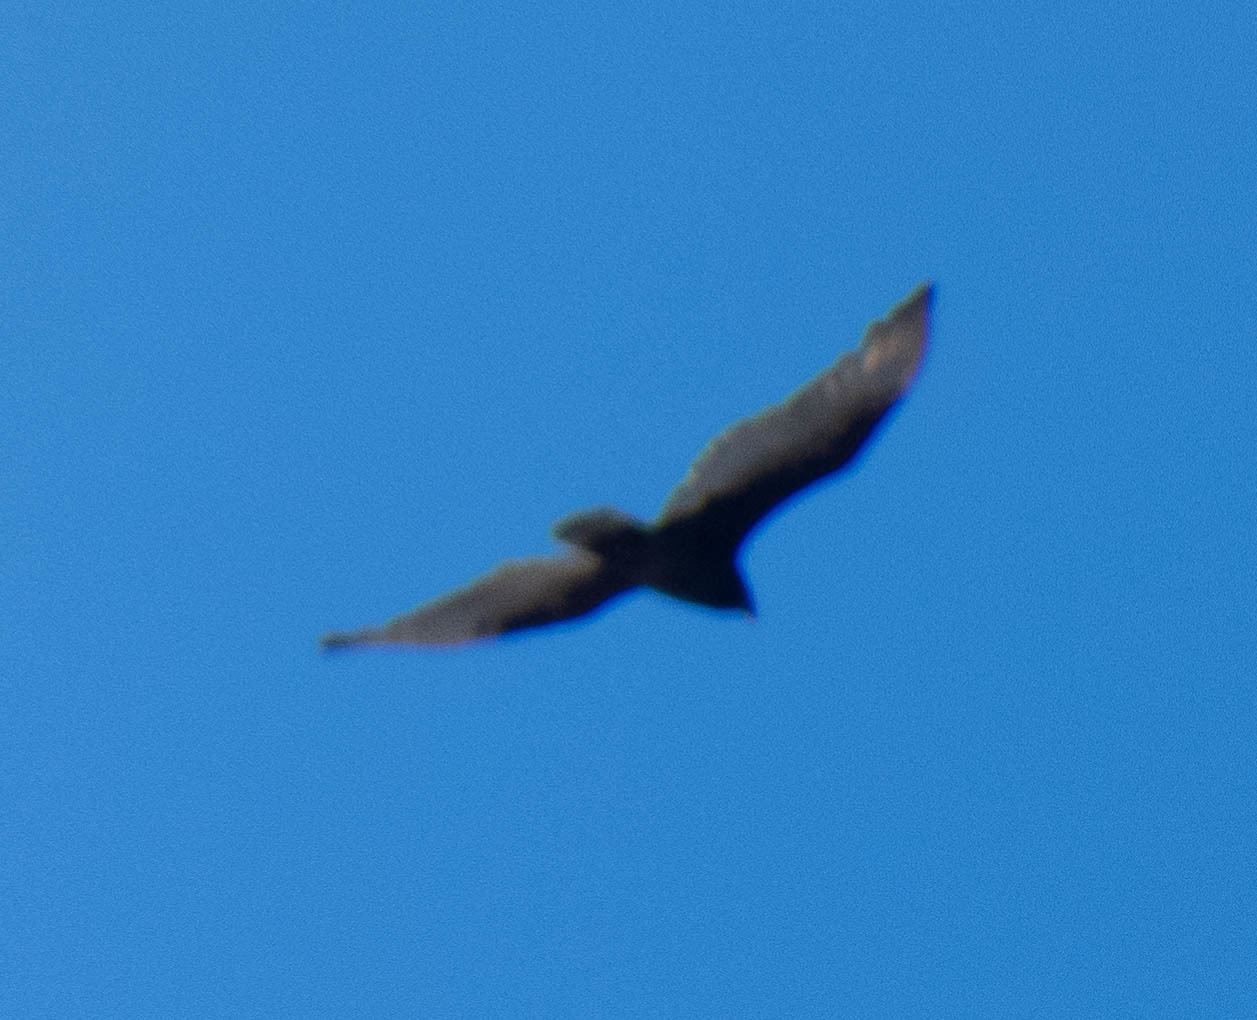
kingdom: Animalia
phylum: Chordata
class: Aves
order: Accipitriformes
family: Cathartidae
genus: Cathartes
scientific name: Cathartes aura
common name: Turkey vulture
